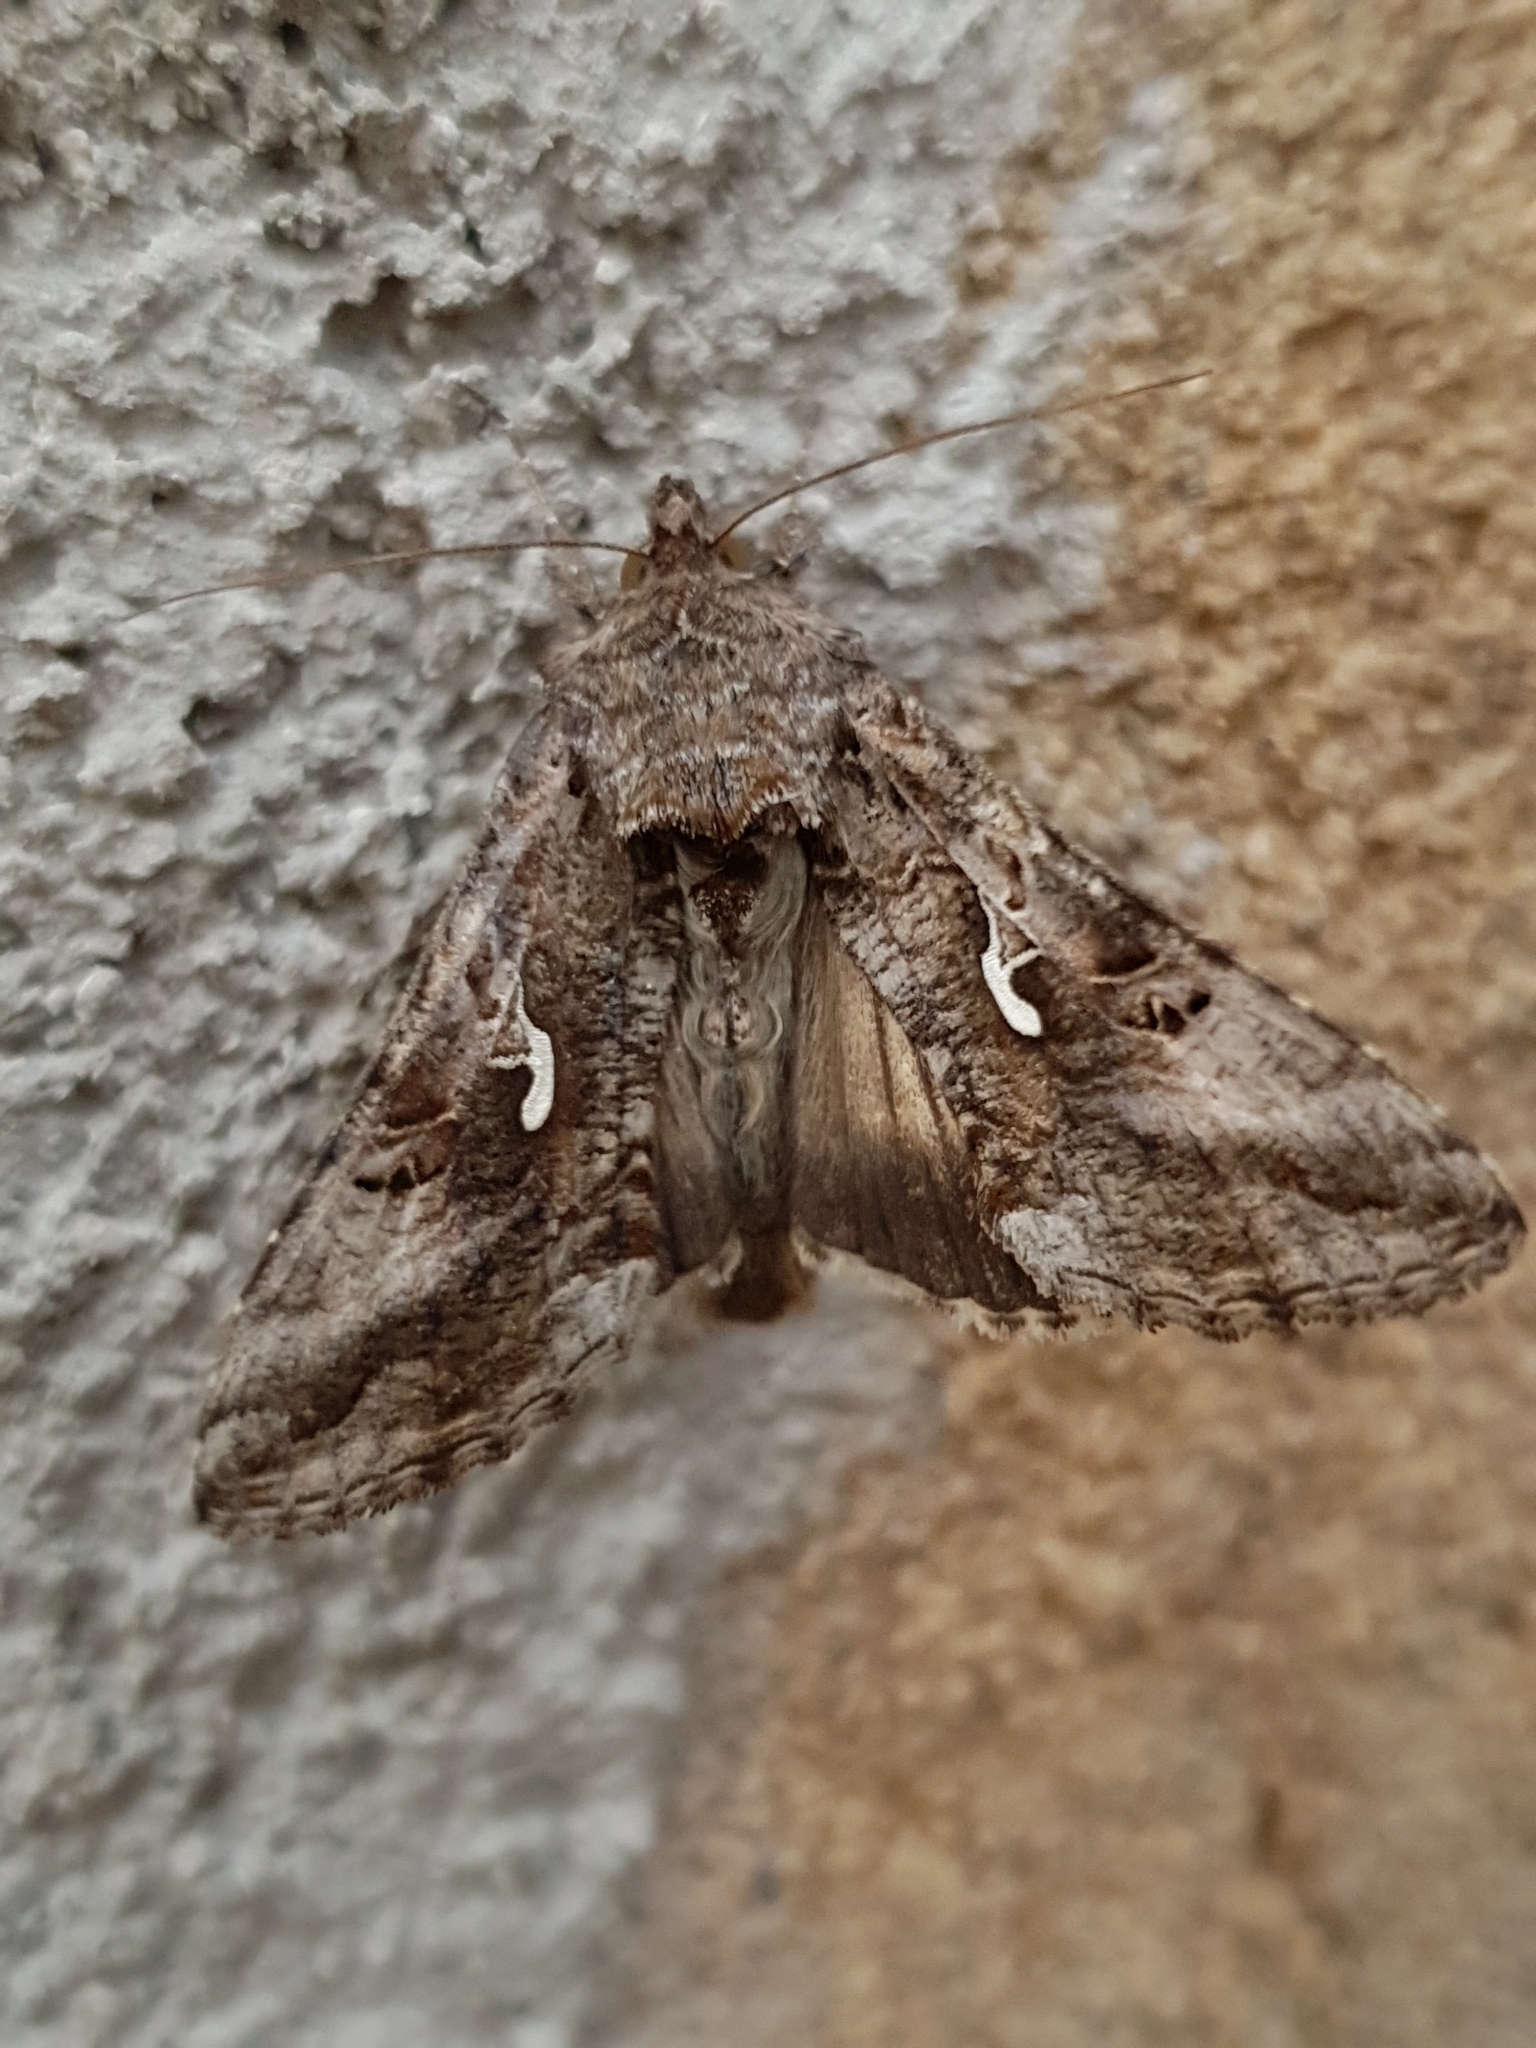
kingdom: Animalia
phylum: Arthropoda
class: Insecta
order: Lepidoptera
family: Noctuidae
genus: Autographa
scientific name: Autographa gamma
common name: Silver y
